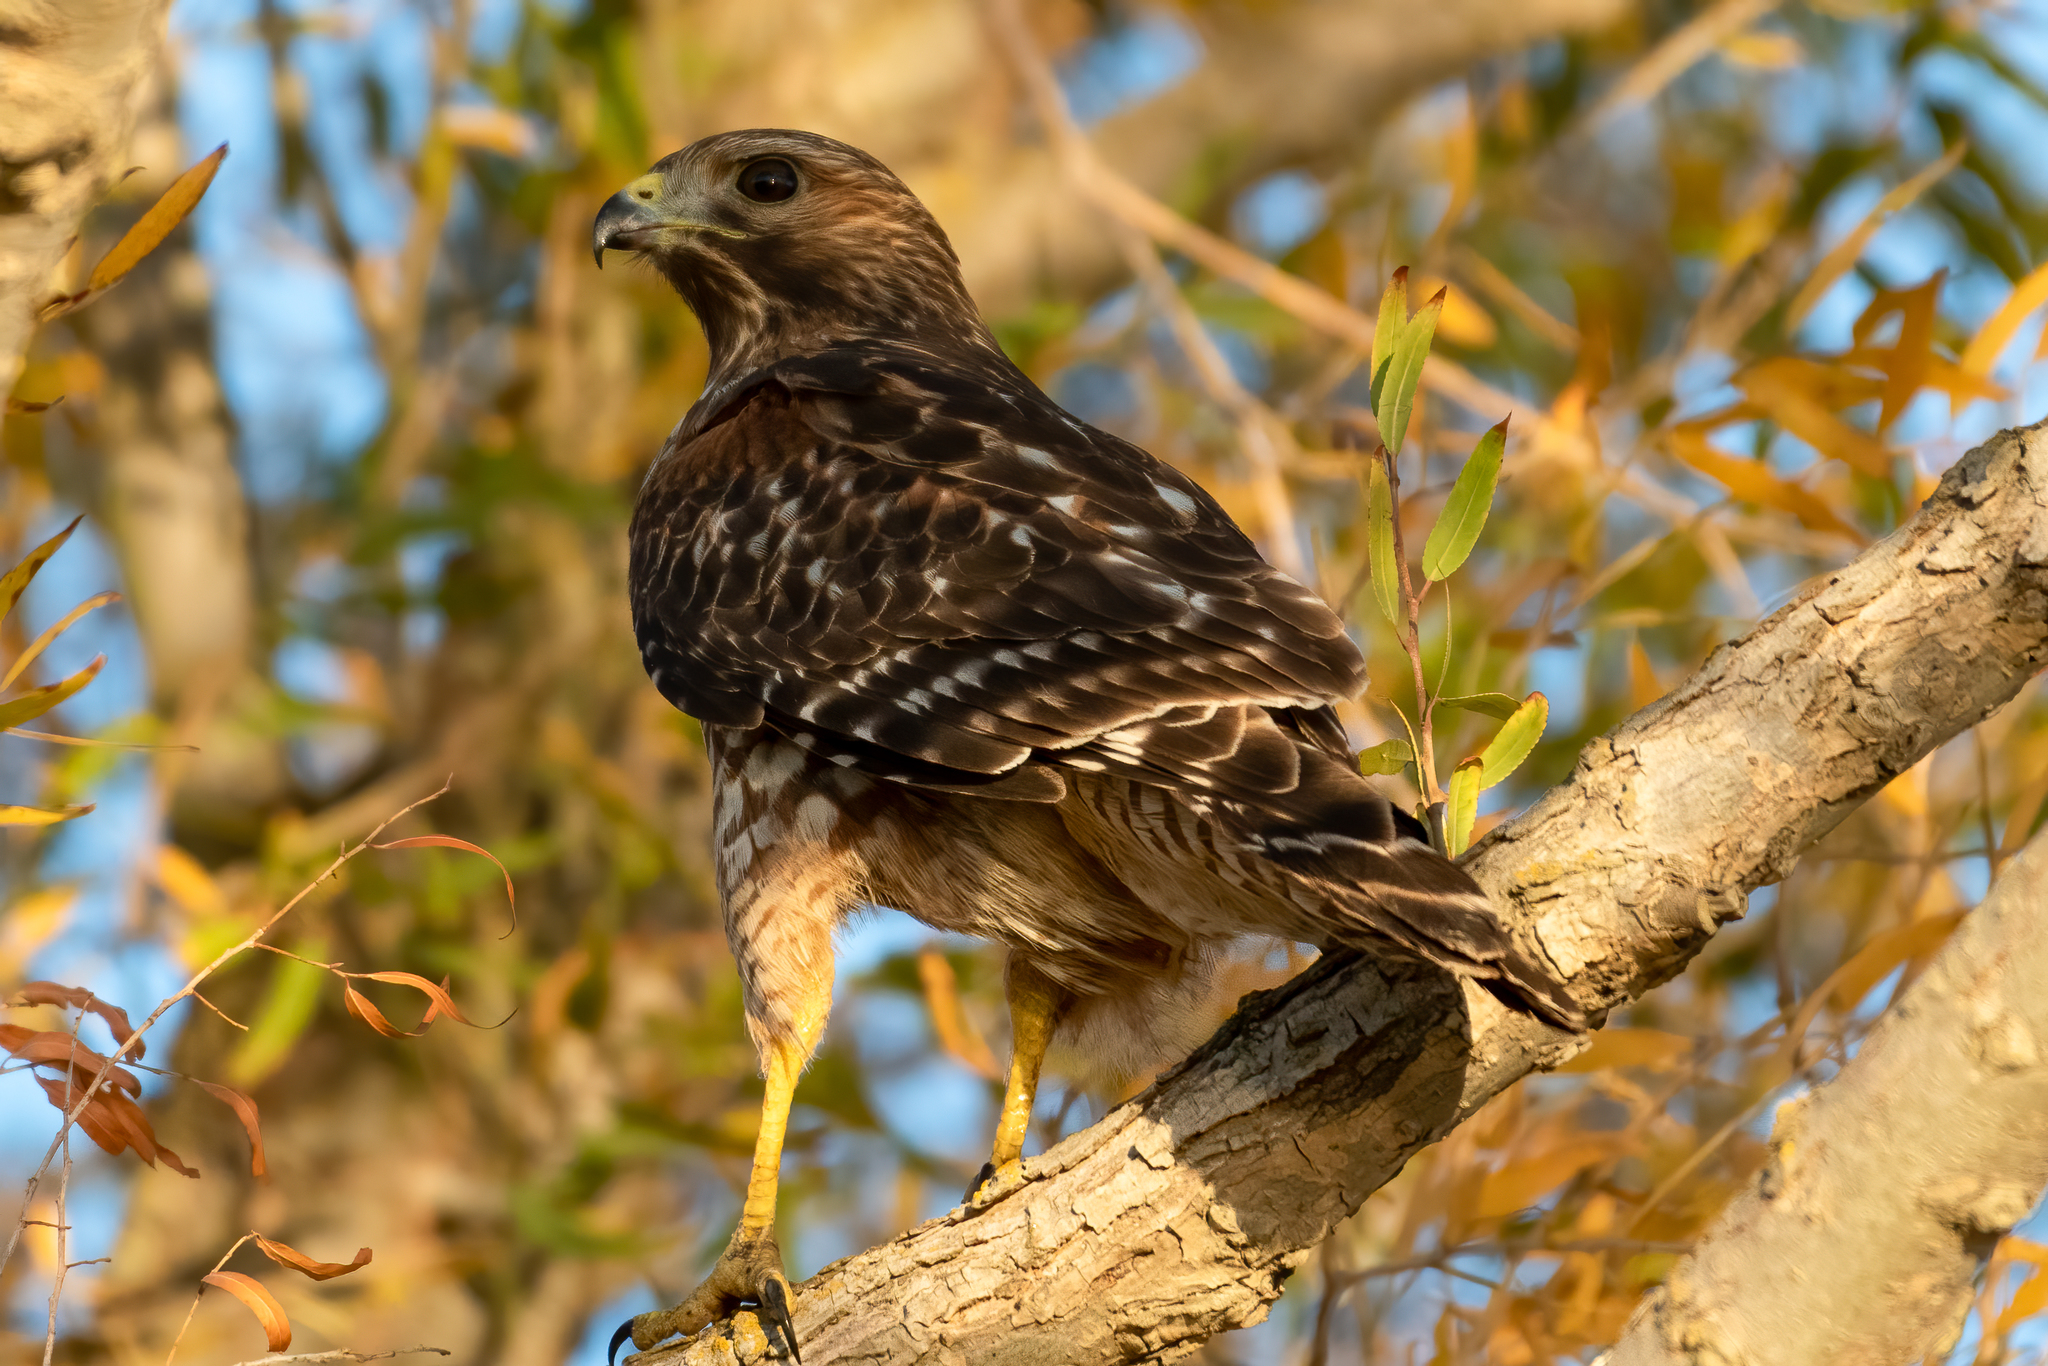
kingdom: Animalia
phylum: Chordata
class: Aves
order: Accipitriformes
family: Accipitridae
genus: Buteo
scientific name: Buteo lineatus
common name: Red-shouldered hawk
